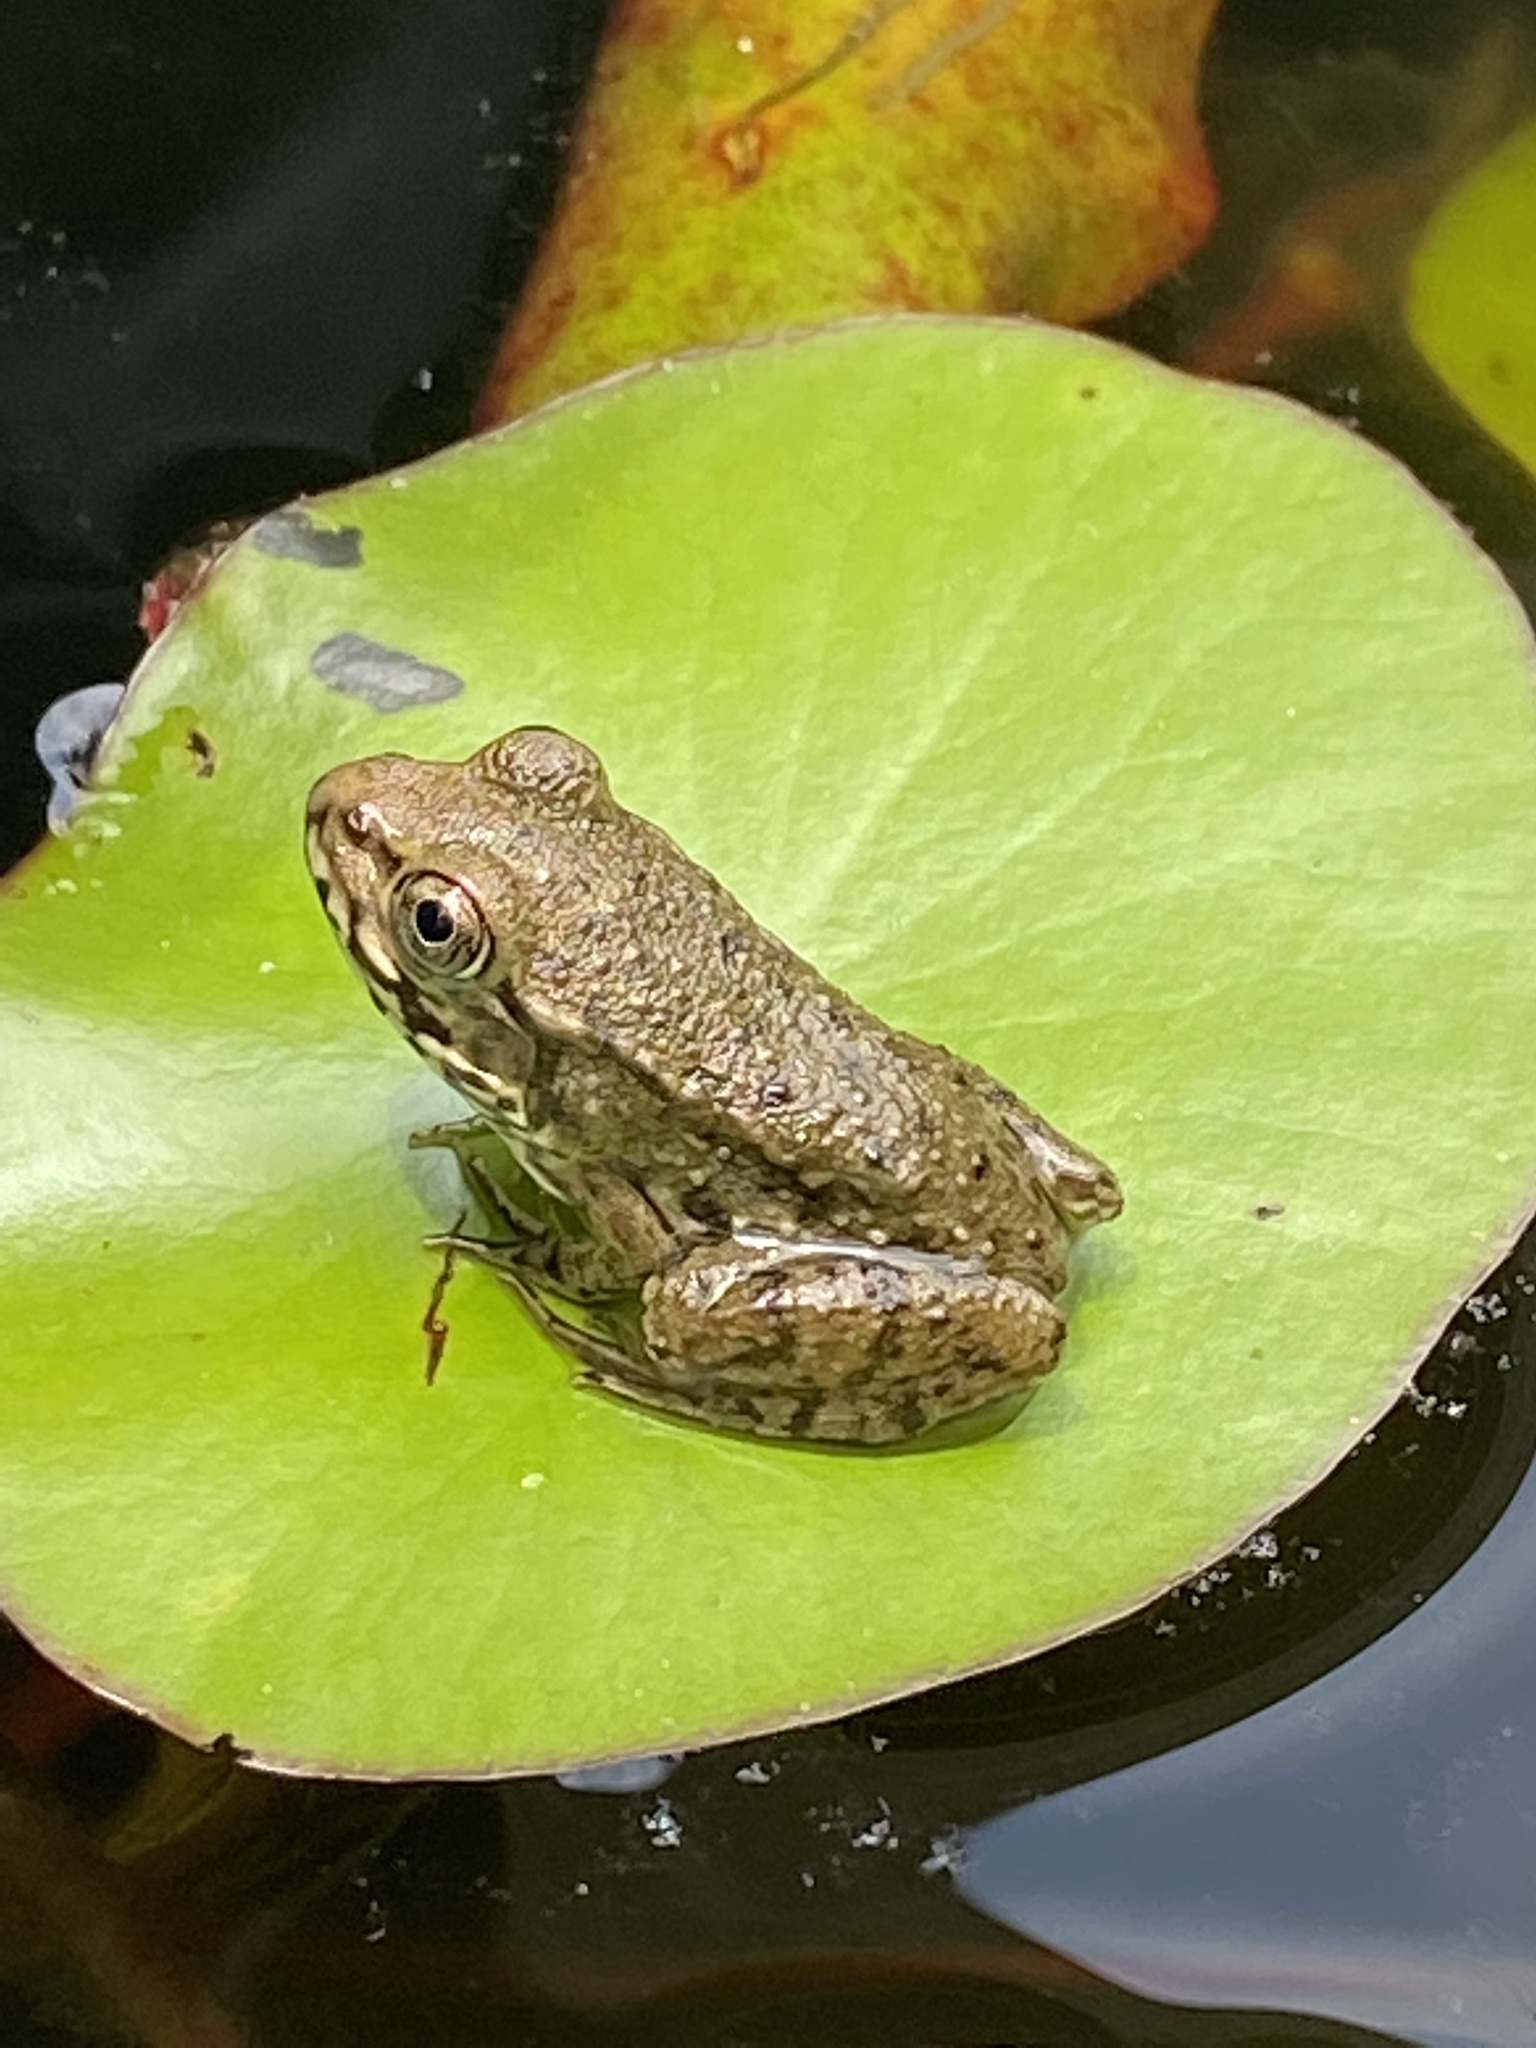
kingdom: Animalia
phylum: Chordata
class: Amphibia
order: Anura
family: Ranidae
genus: Lithobates
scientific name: Lithobates clamitans
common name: Green frog
